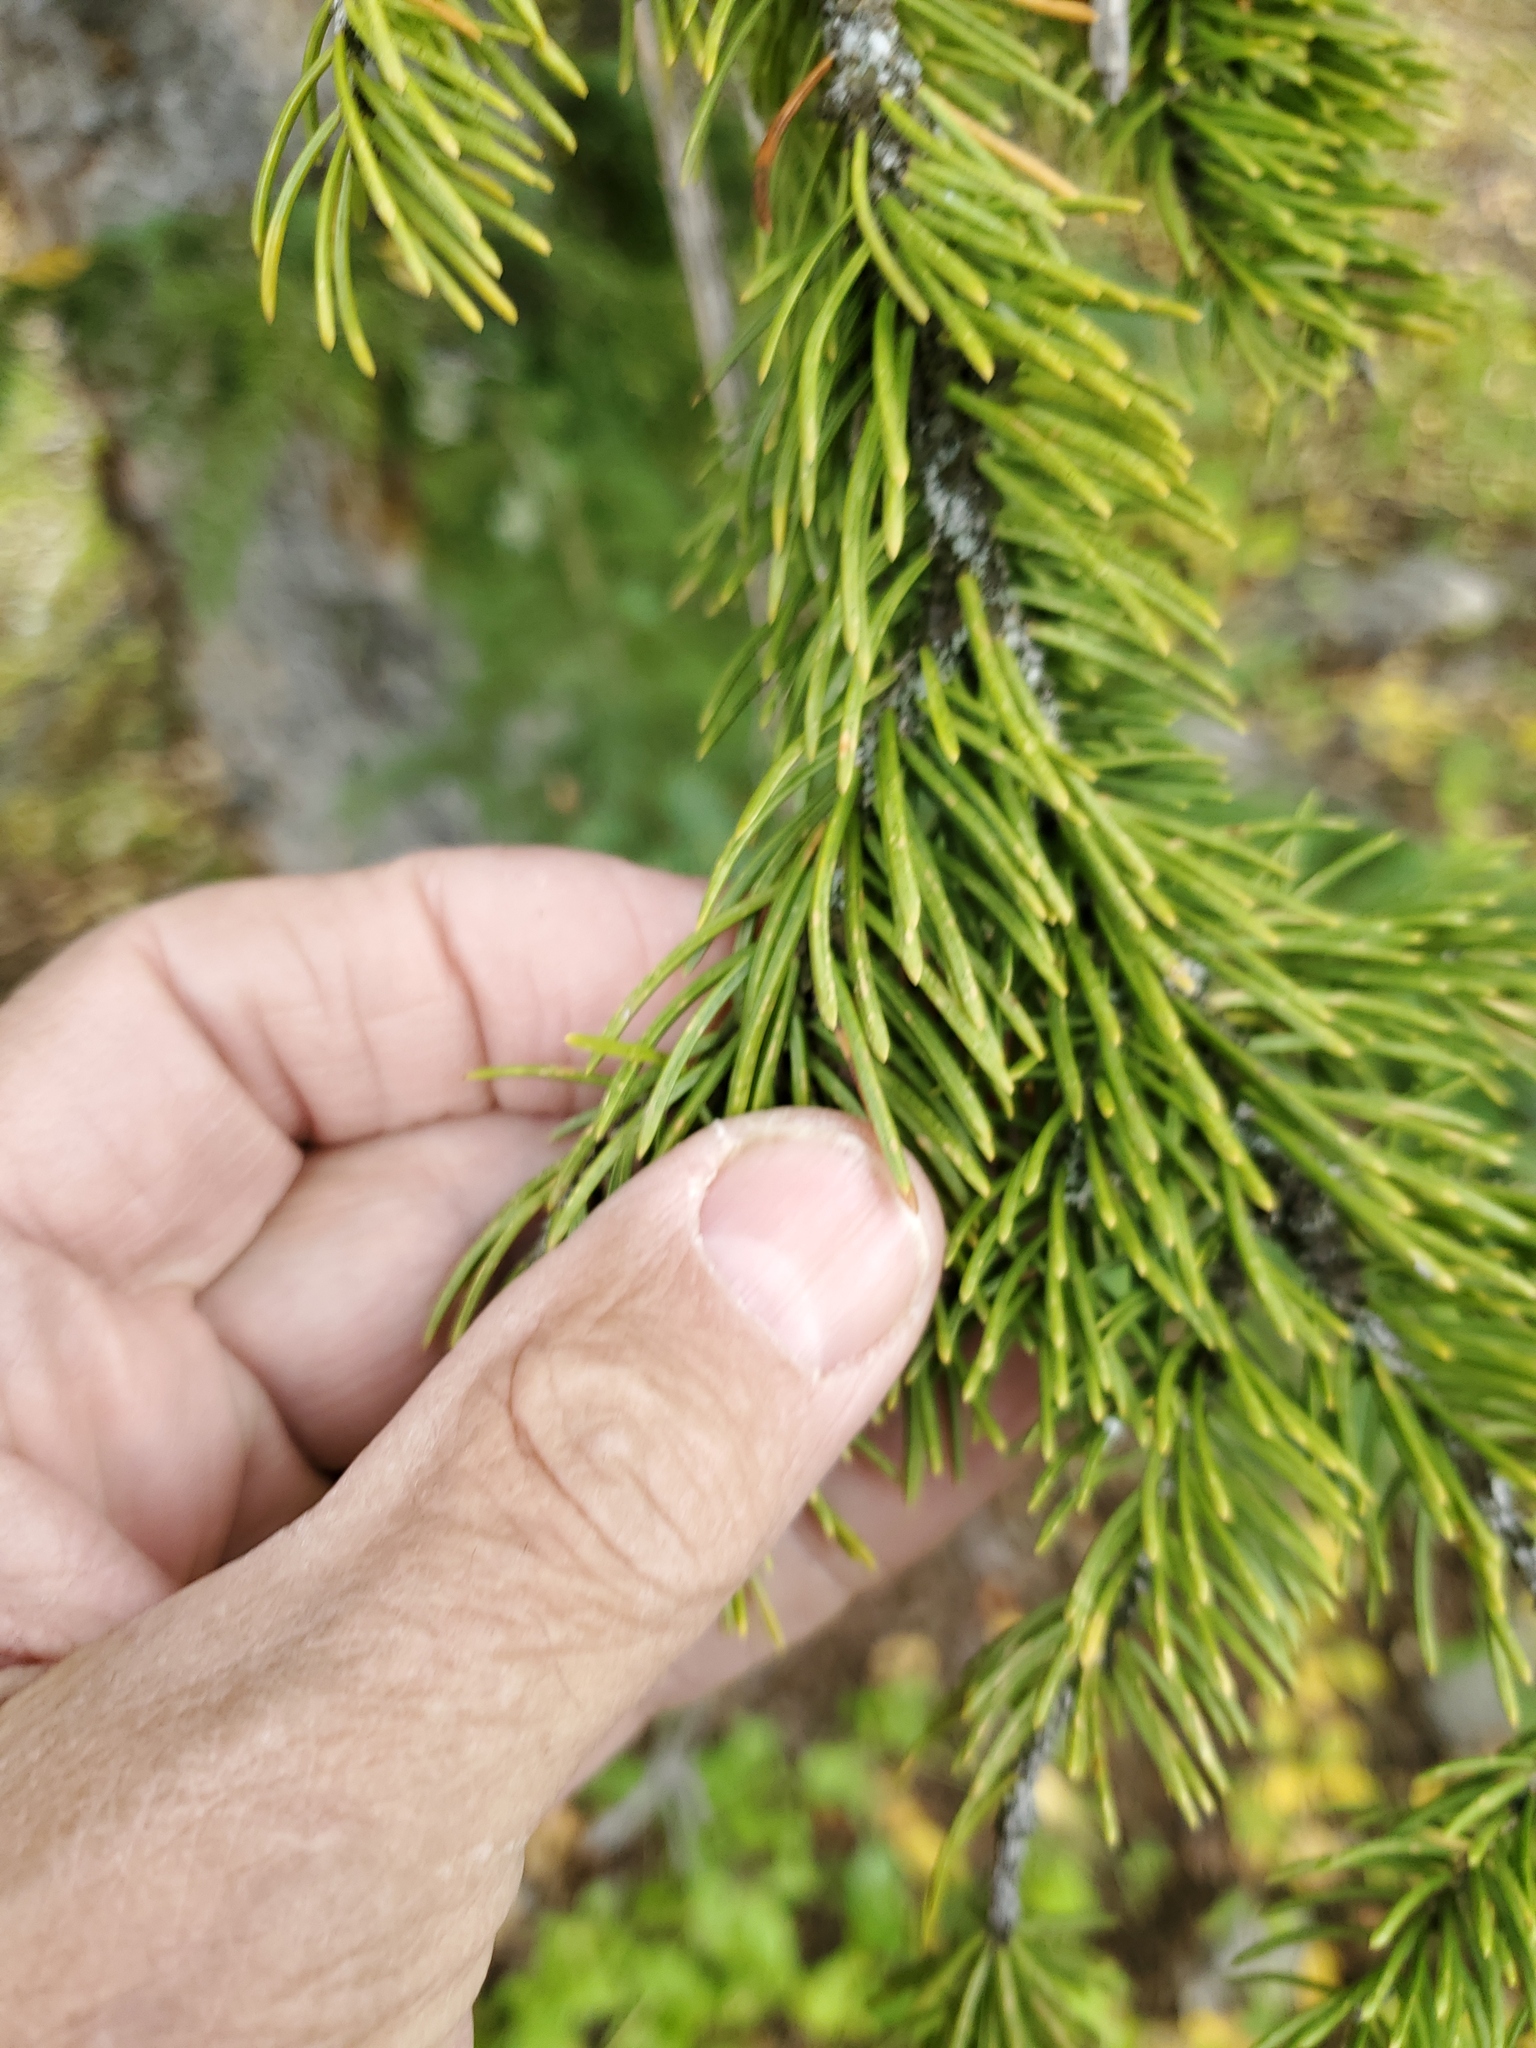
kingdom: Plantae
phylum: Tracheophyta
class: Pinopsida
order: Pinales
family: Pinaceae
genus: Pseudotsuga
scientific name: Pseudotsuga menziesii
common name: Douglas fir
